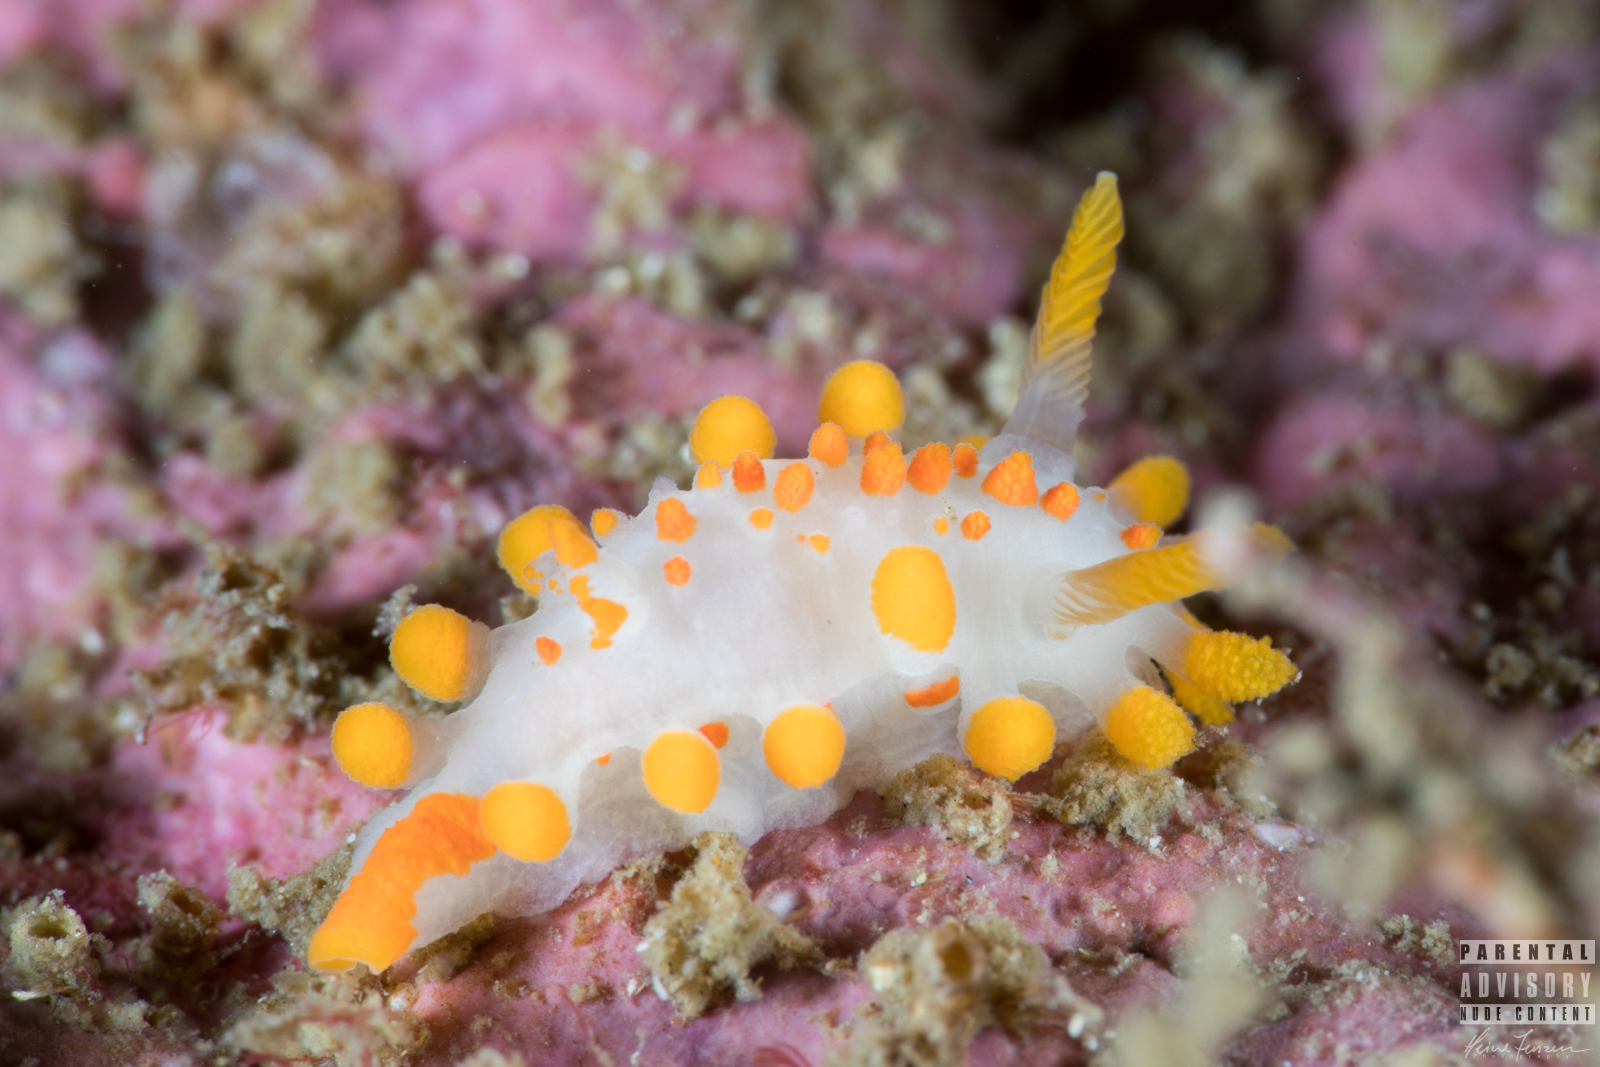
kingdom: Animalia
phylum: Mollusca
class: Gastropoda
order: Nudibranchia
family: Polyceridae
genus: Limacia
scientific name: Limacia clavigera
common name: Orange-clubbed sea slug
